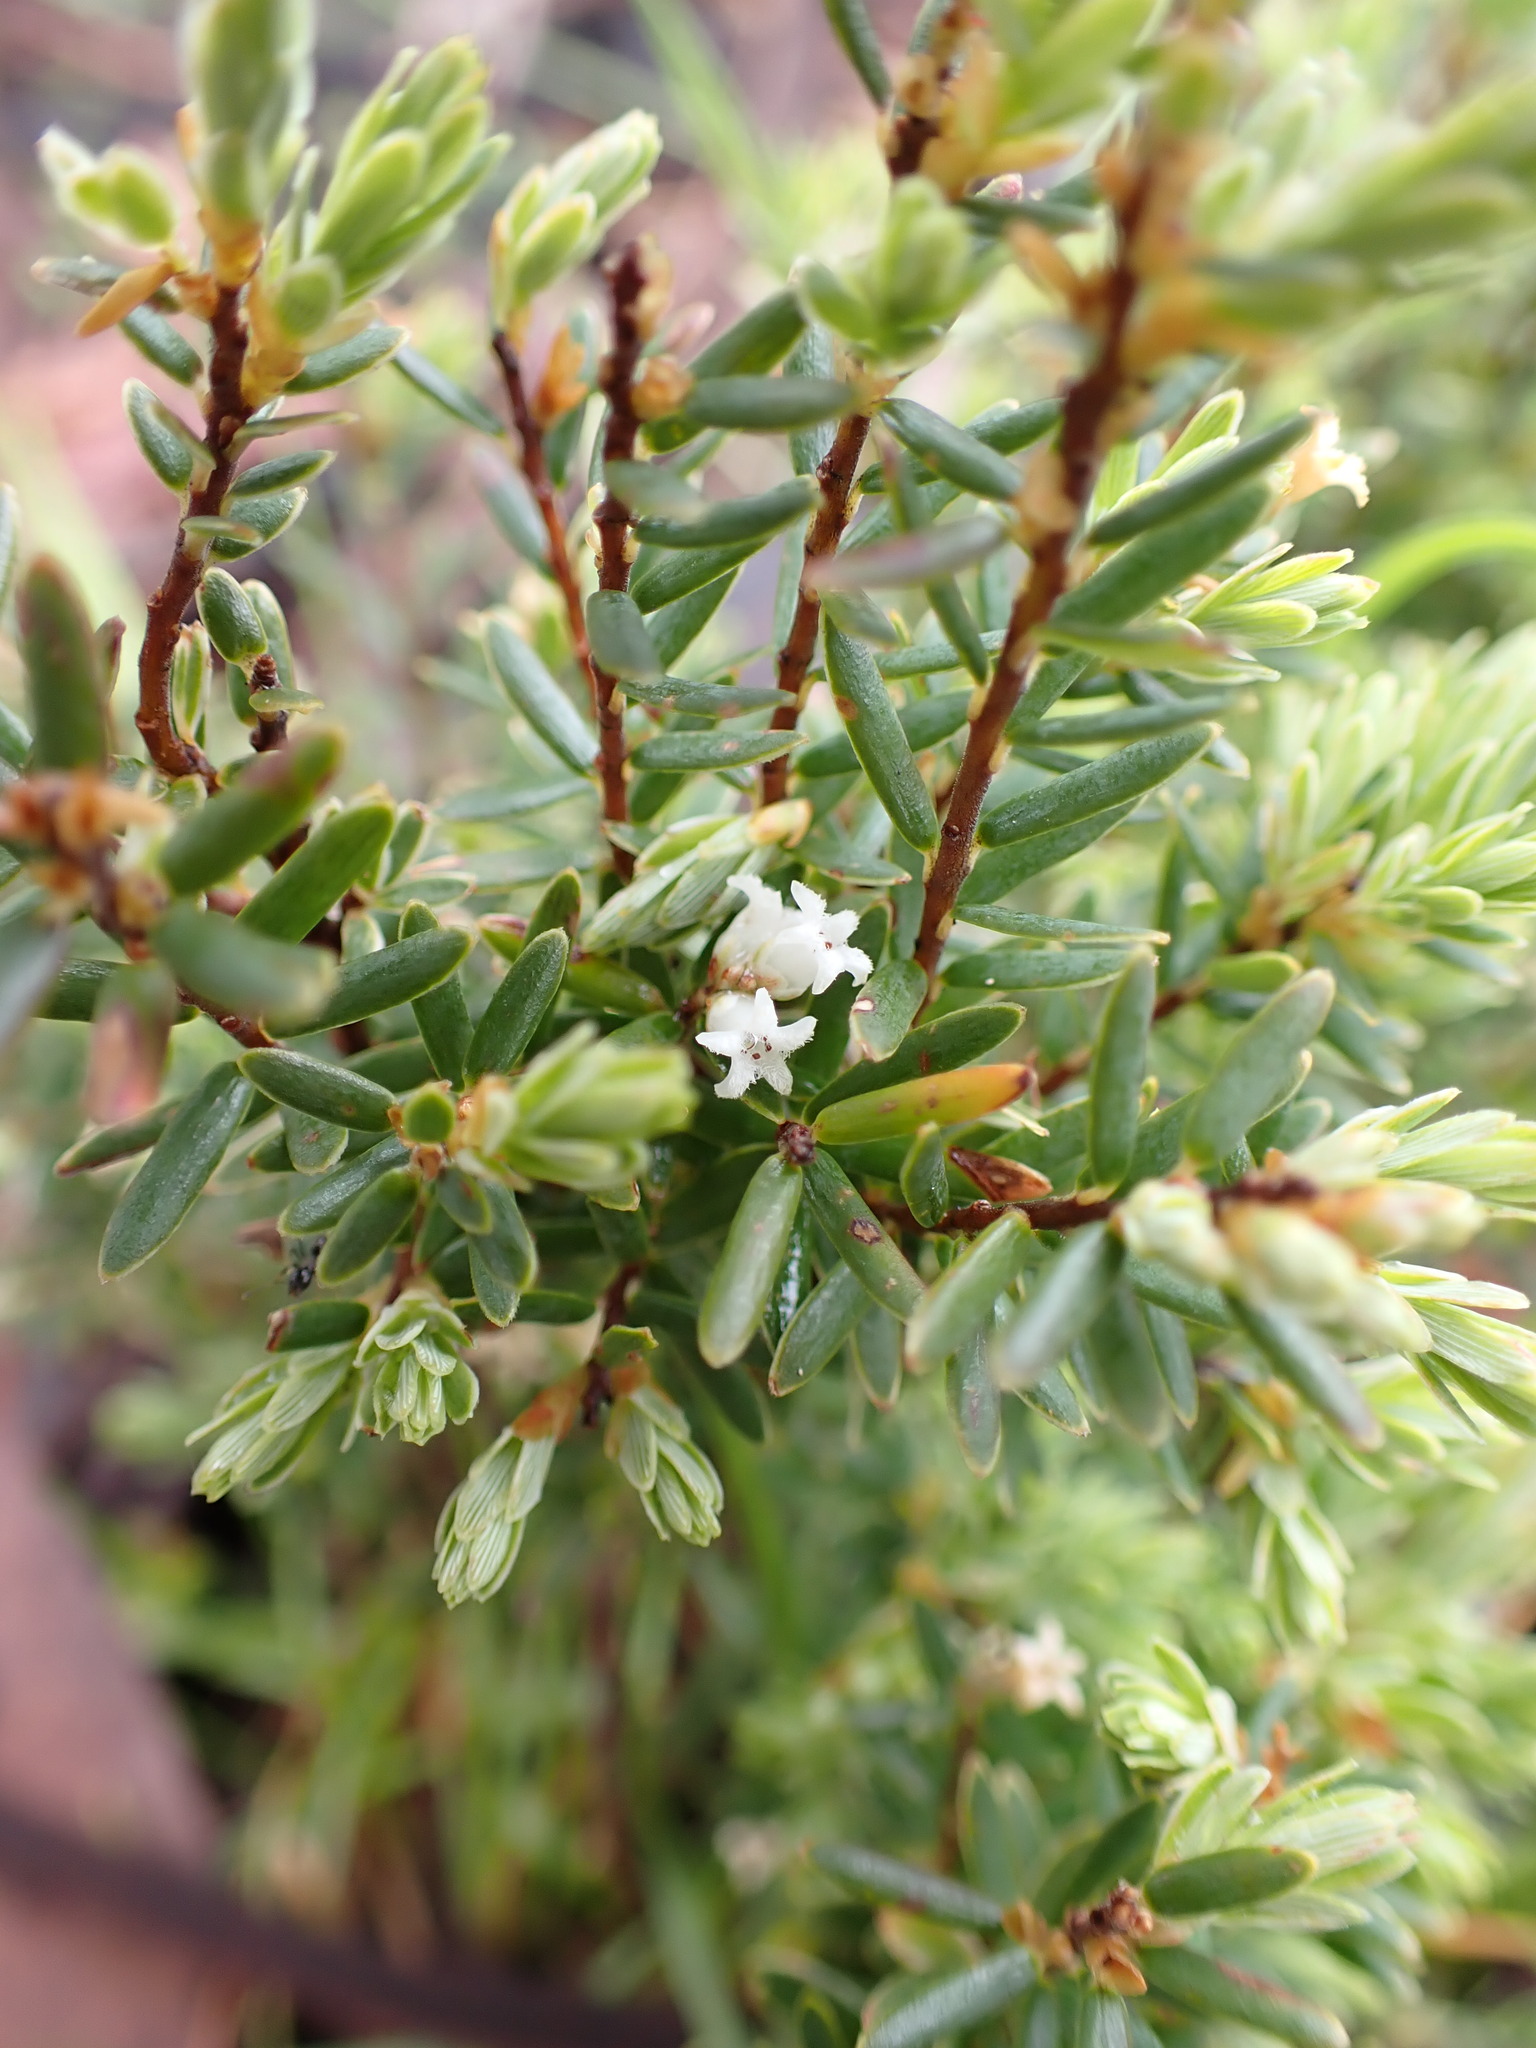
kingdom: Plantae
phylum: Tracheophyta
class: Magnoliopsida
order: Ericales
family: Ericaceae
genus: Acrothamnus
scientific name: Acrothamnus hookeri
